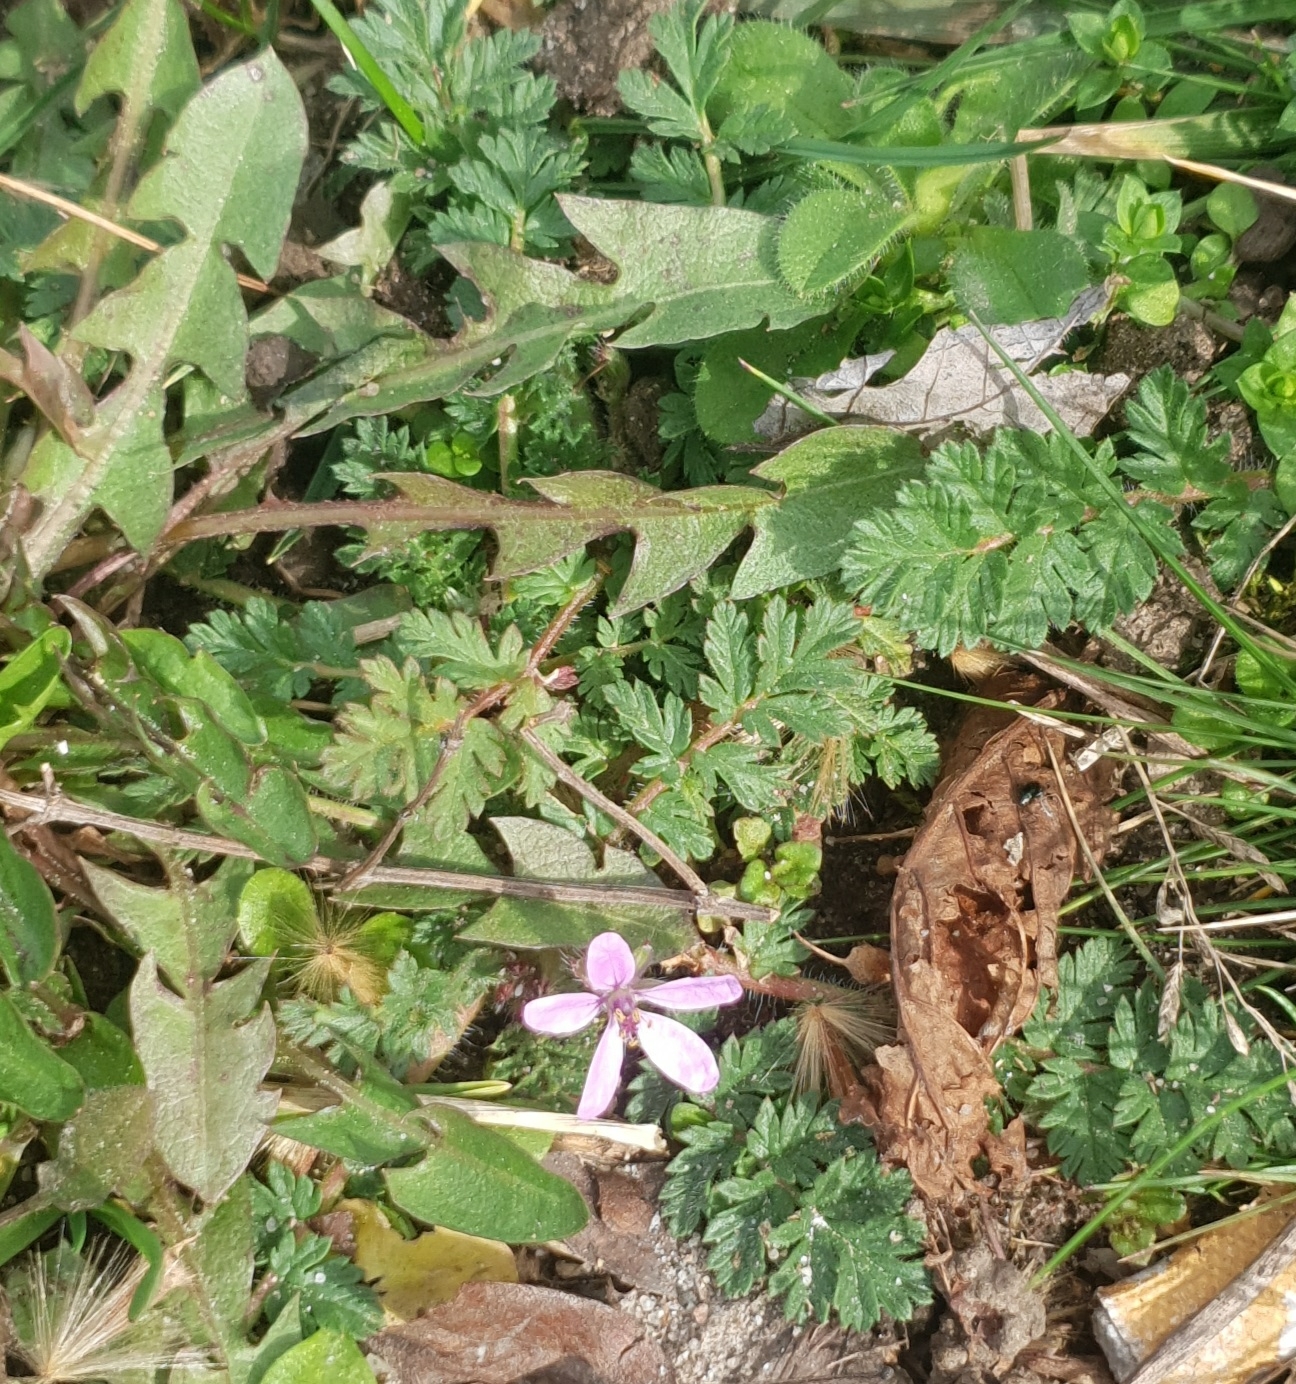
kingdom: Plantae
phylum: Tracheophyta
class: Magnoliopsida
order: Geraniales
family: Geraniaceae
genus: Erodium
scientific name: Erodium cicutarium
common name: Common stork's-bill
